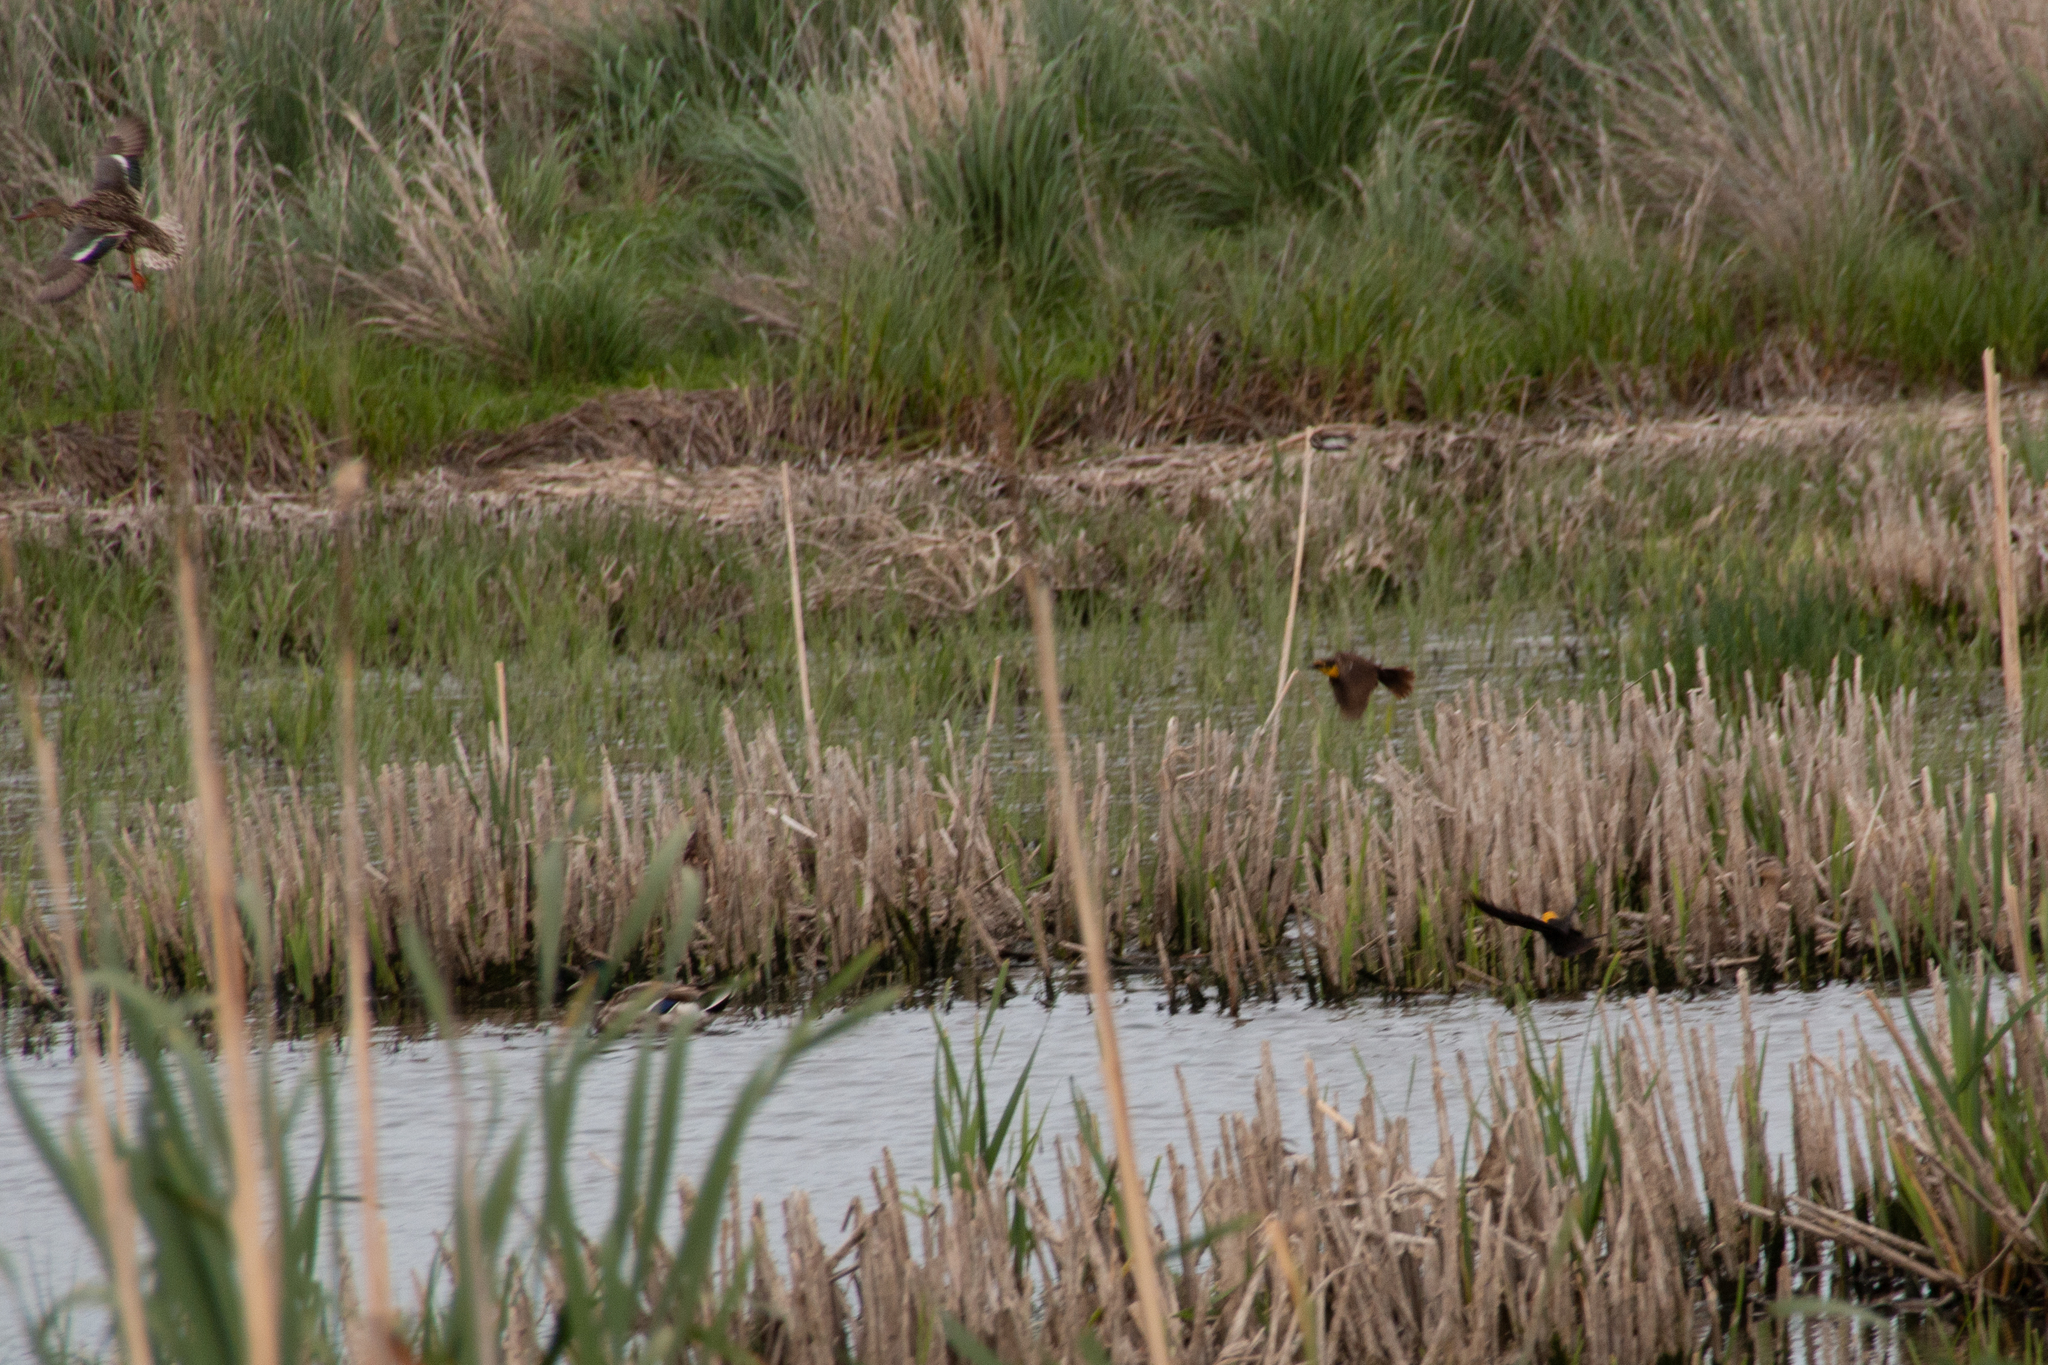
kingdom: Animalia
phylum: Chordata
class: Aves
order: Passeriformes
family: Icteridae
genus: Xanthocephalus
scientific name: Xanthocephalus xanthocephalus
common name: Yellow-headed blackbird
